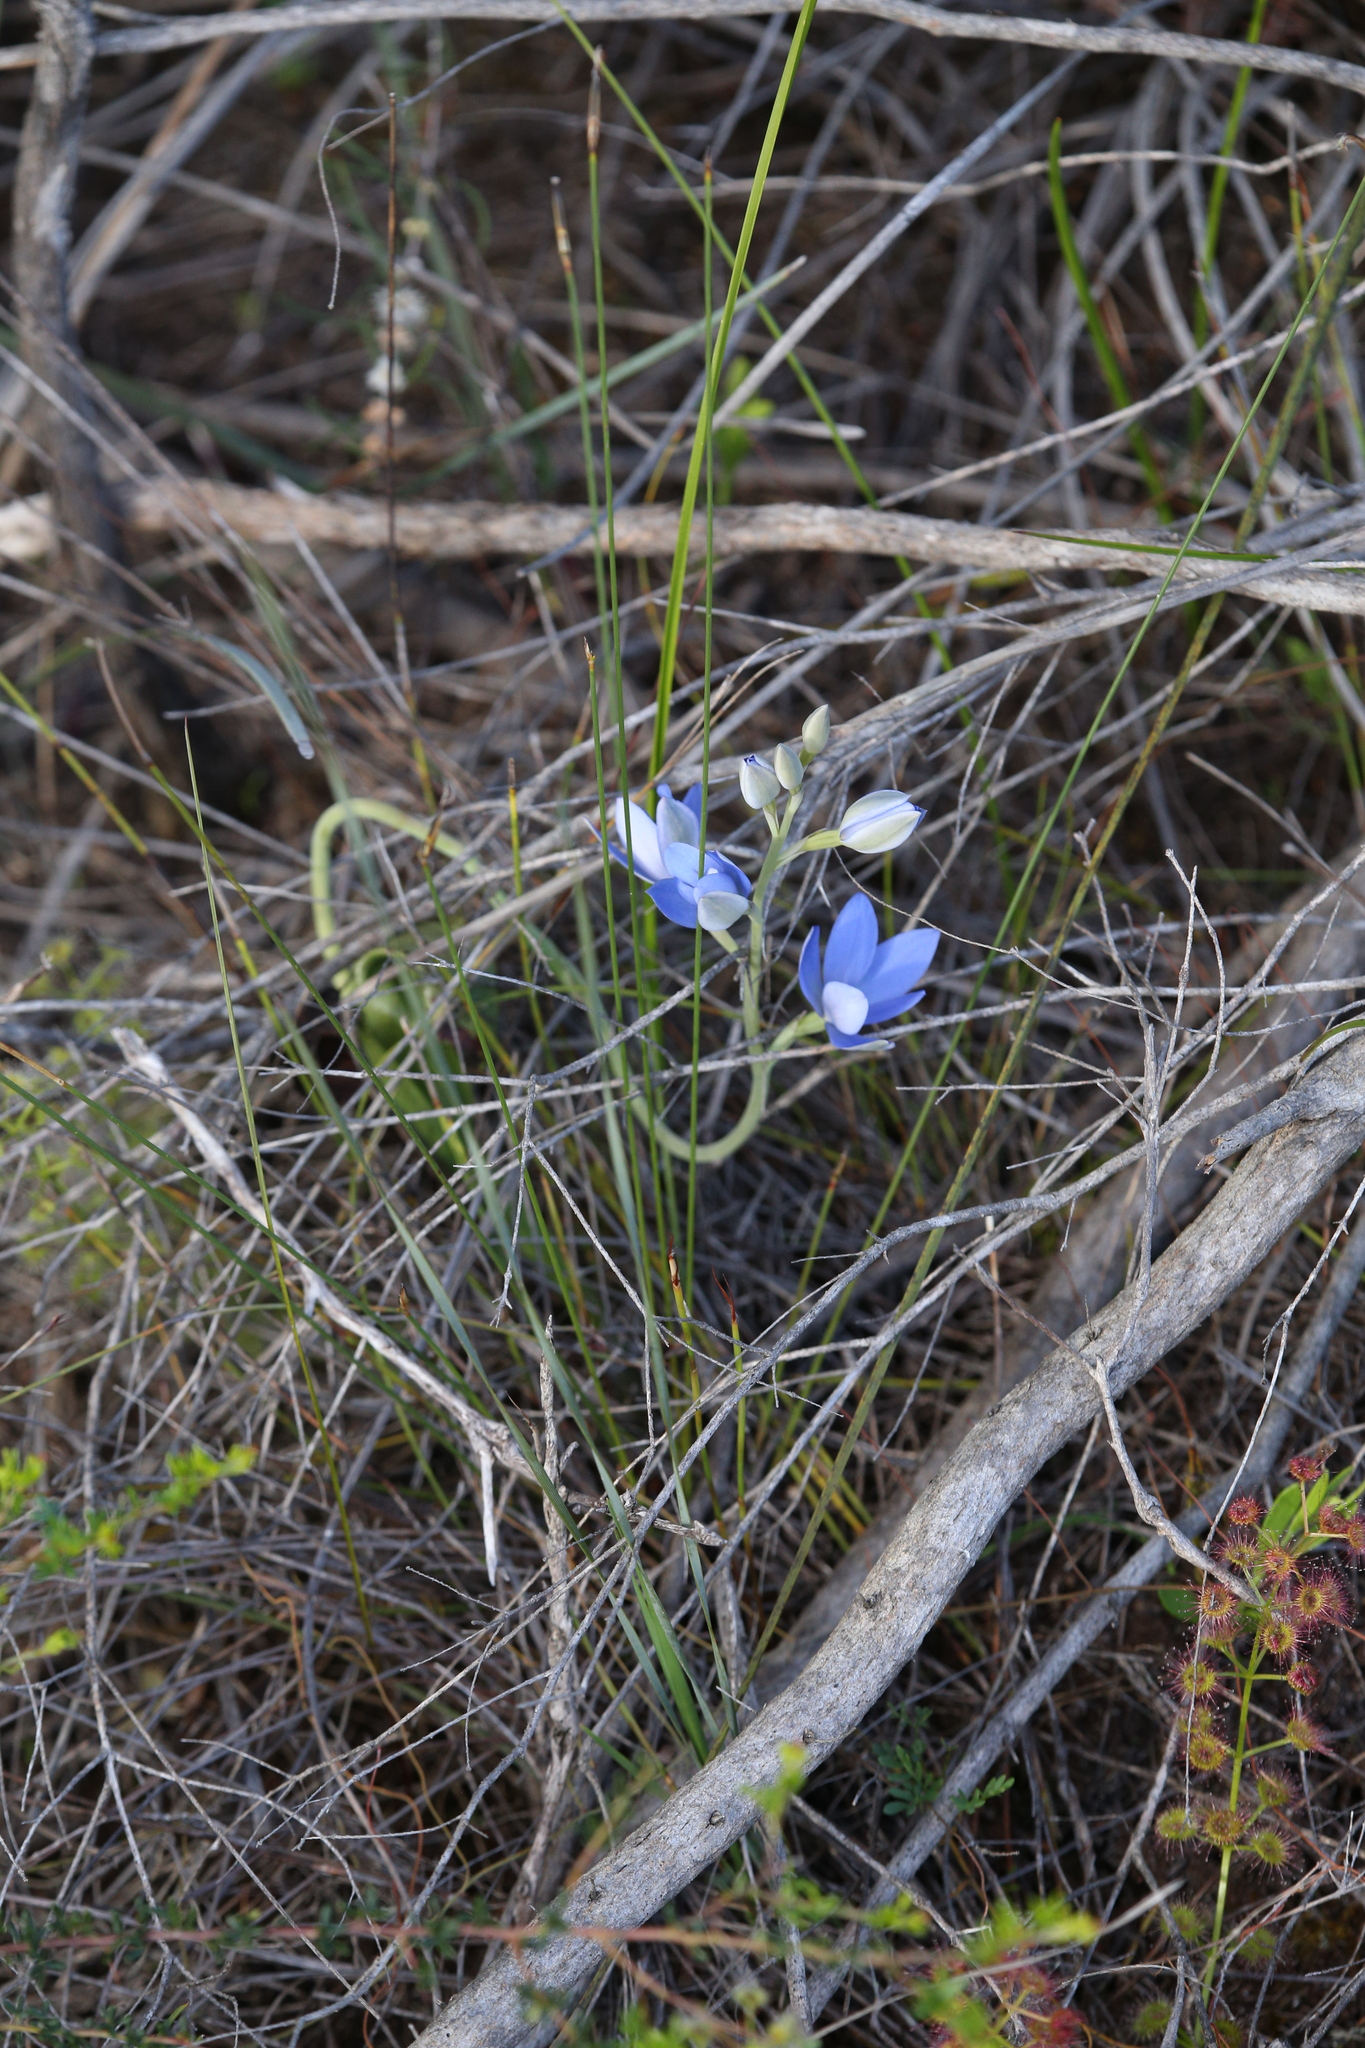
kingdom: Plantae
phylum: Tracheophyta
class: Liliopsida
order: Asparagales
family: Orchidaceae
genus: Thelymitra
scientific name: Thelymitra crinita
